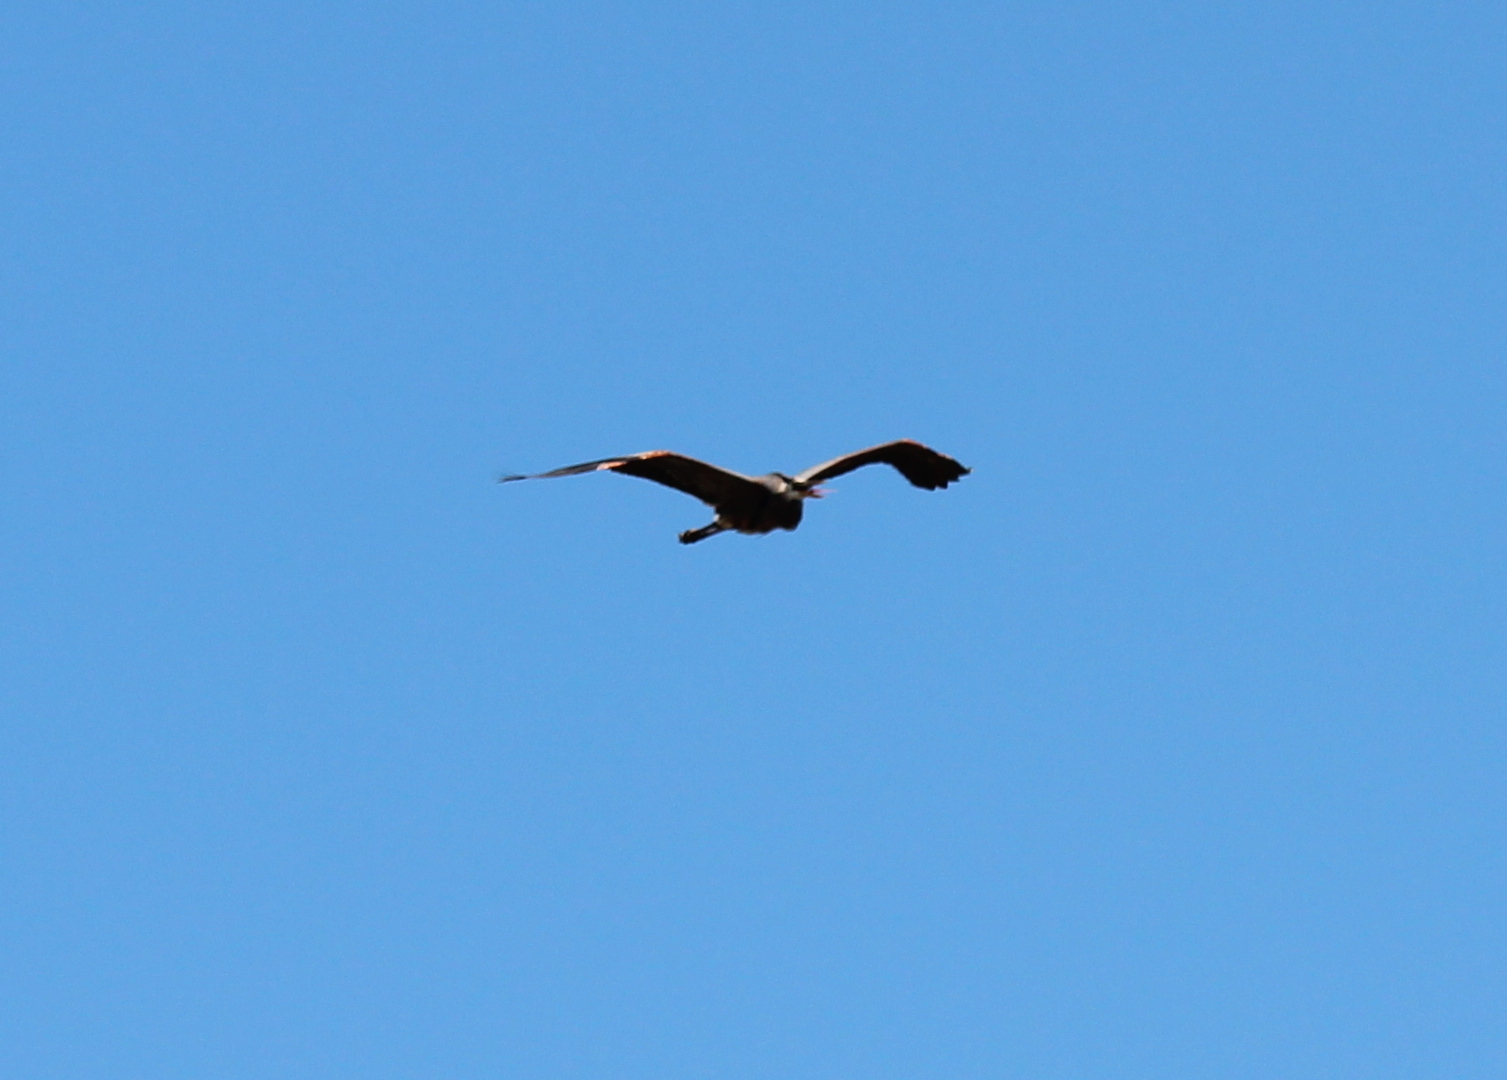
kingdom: Animalia
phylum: Chordata
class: Aves
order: Pelecaniformes
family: Ardeidae
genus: Ardea
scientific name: Ardea herodias
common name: Great blue heron
